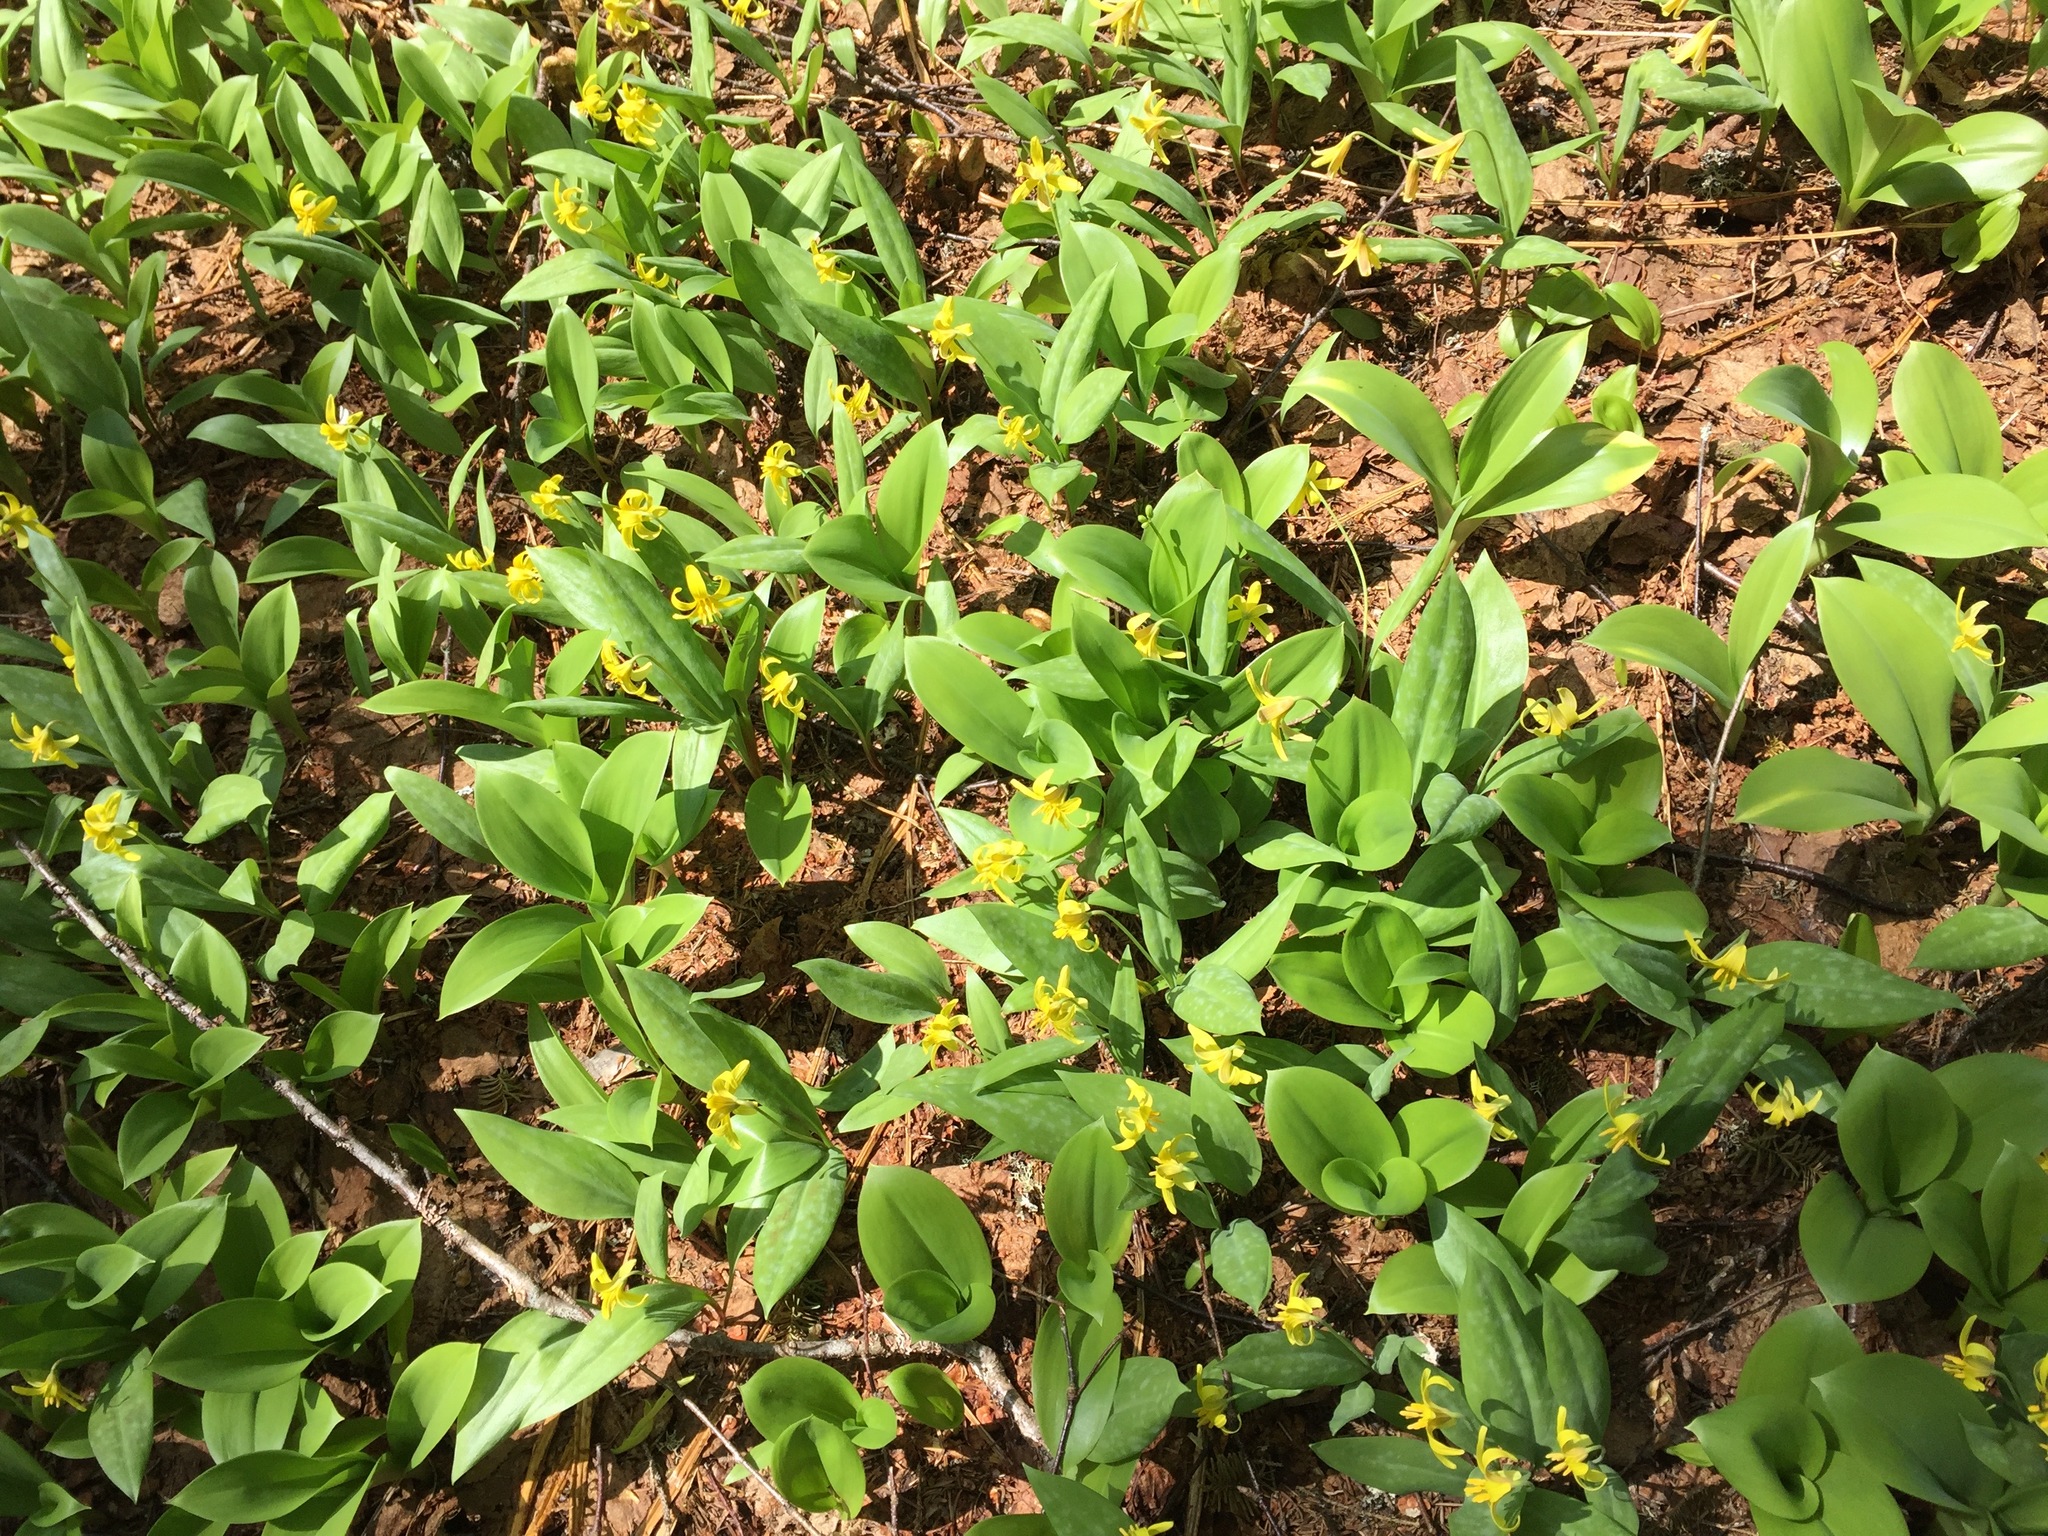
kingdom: Plantae
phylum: Tracheophyta
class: Liliopsida
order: Liliales
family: Liliaceae
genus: Clintonia
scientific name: Clintonia borealis
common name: Yellow clintonia
